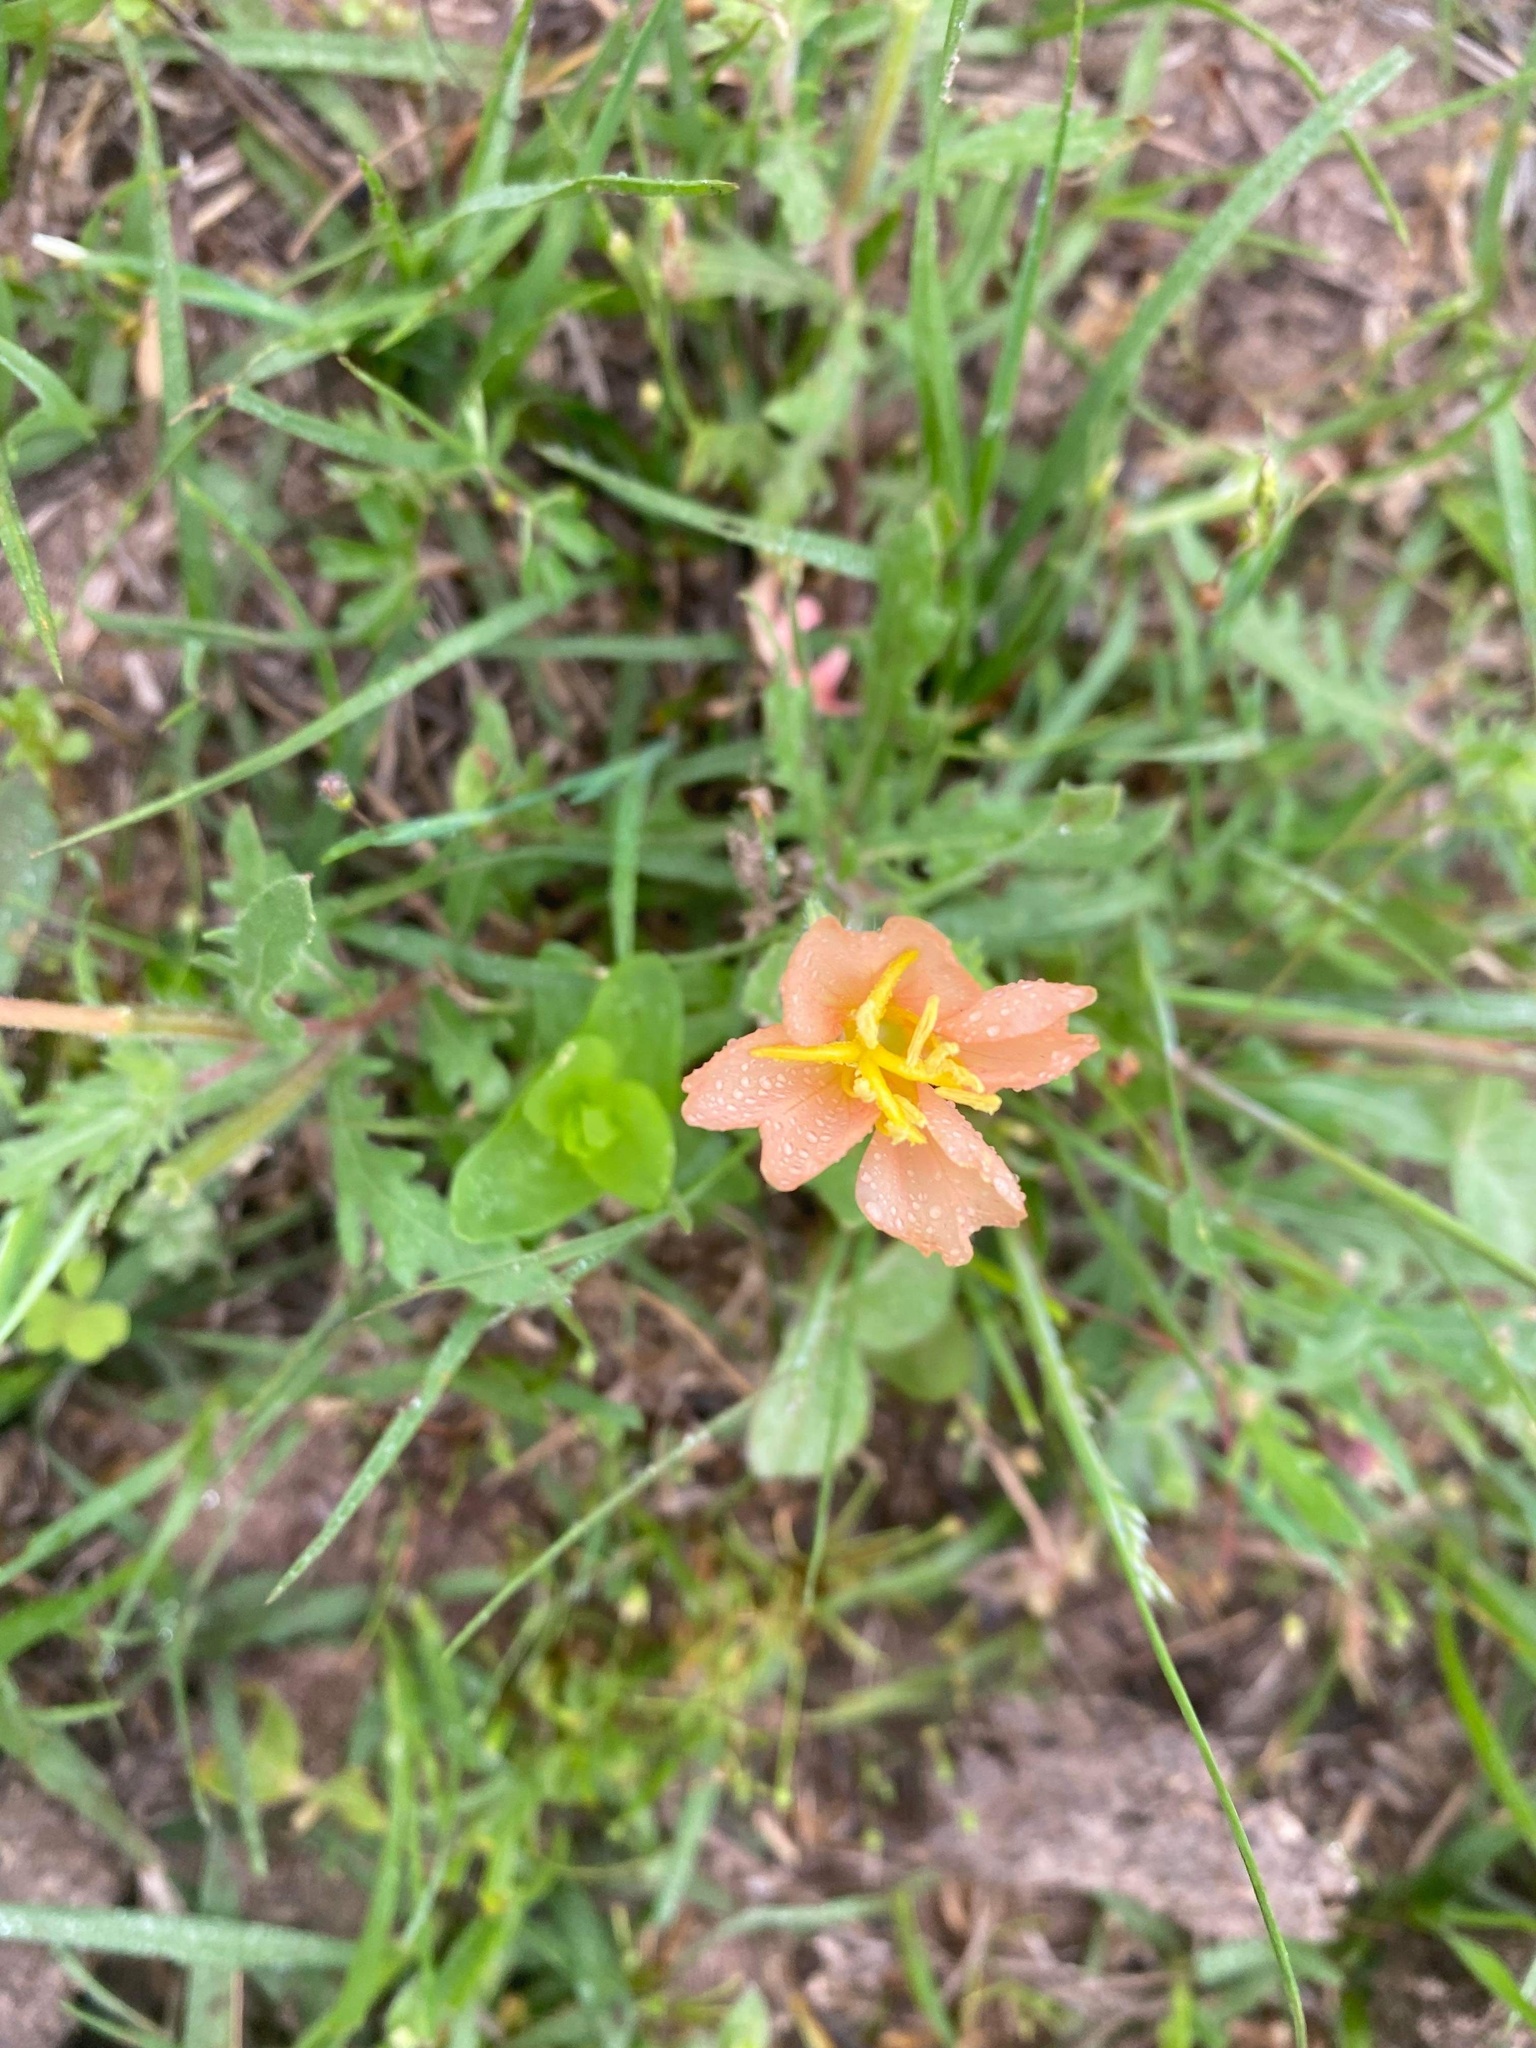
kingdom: Plantae
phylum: Tracheophyta
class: Magnoliopsida
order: Myrtales
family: Onagraceae
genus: Oenothera
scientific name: Oenothera laciniata
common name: Cut-leaved evening-primrose
